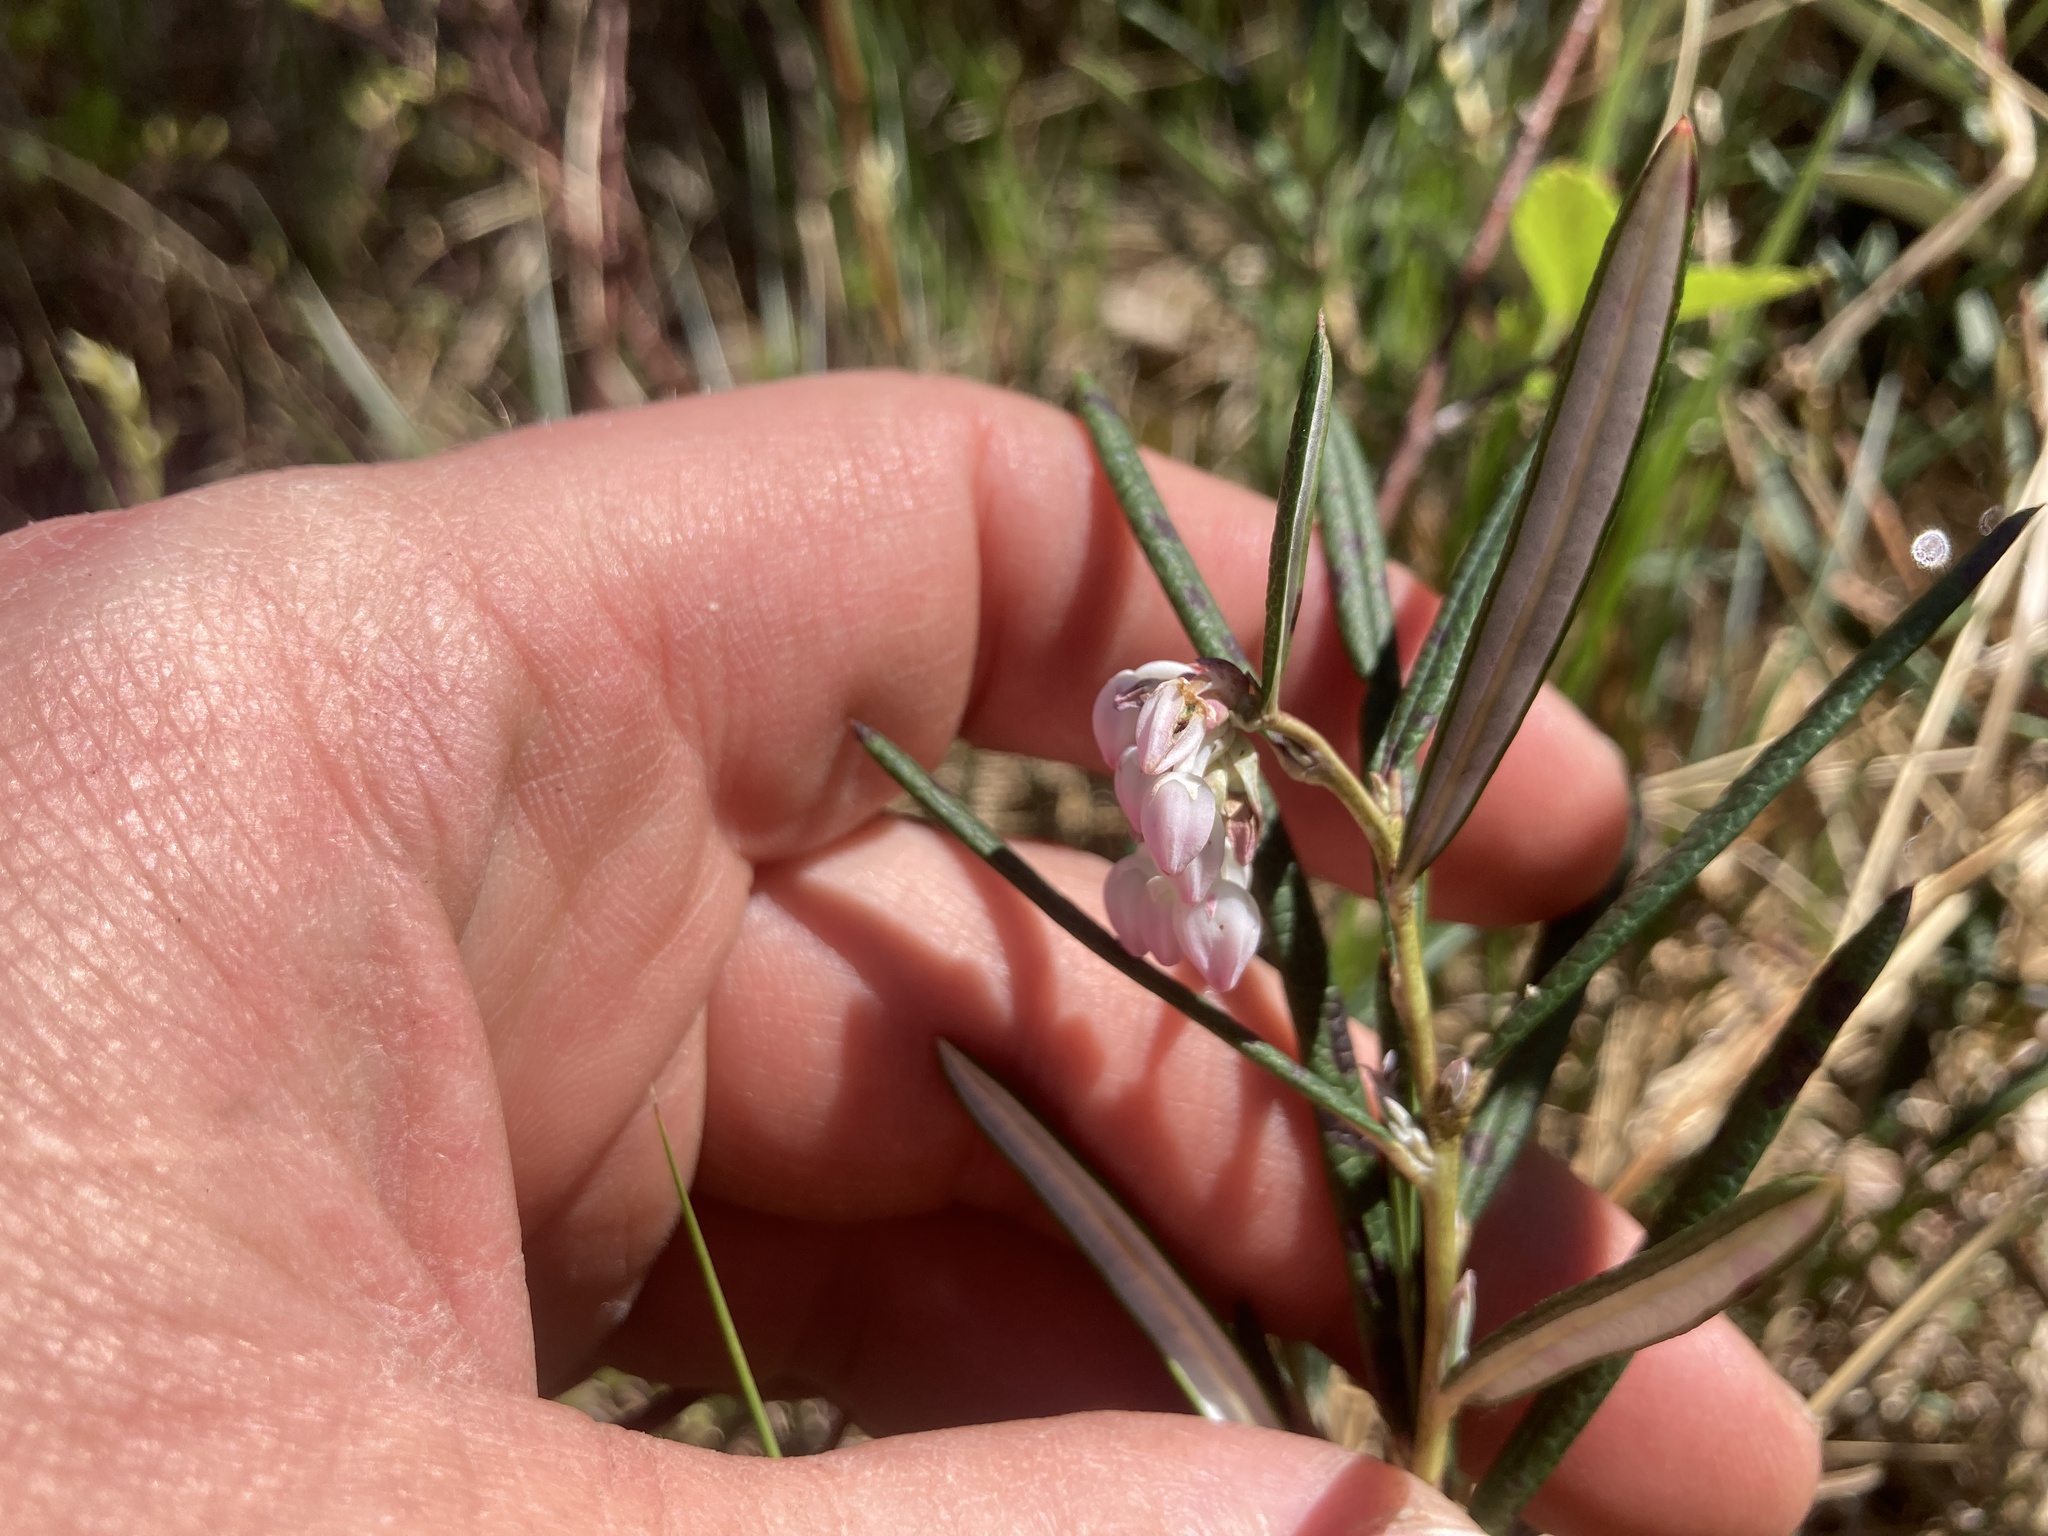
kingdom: Plantae
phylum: Tracheophyta
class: Magnoliopsida
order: Ericales
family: Ericaceae
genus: Andromeda
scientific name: Andromeda polifolia
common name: Bog-rosemary
